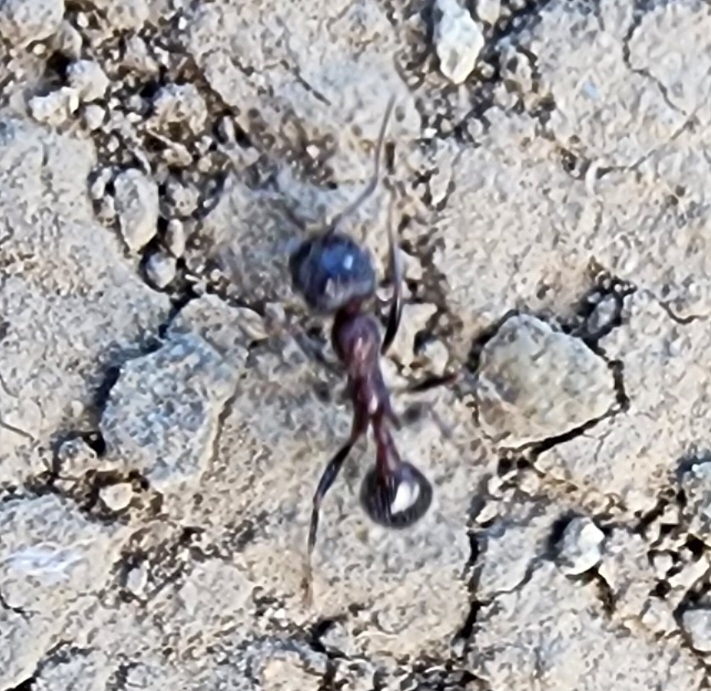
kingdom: Animalia
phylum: Arthropoda
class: Insecta
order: Hymenoptera
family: Formicidae
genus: Veromessor
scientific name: Veromessor andrei
